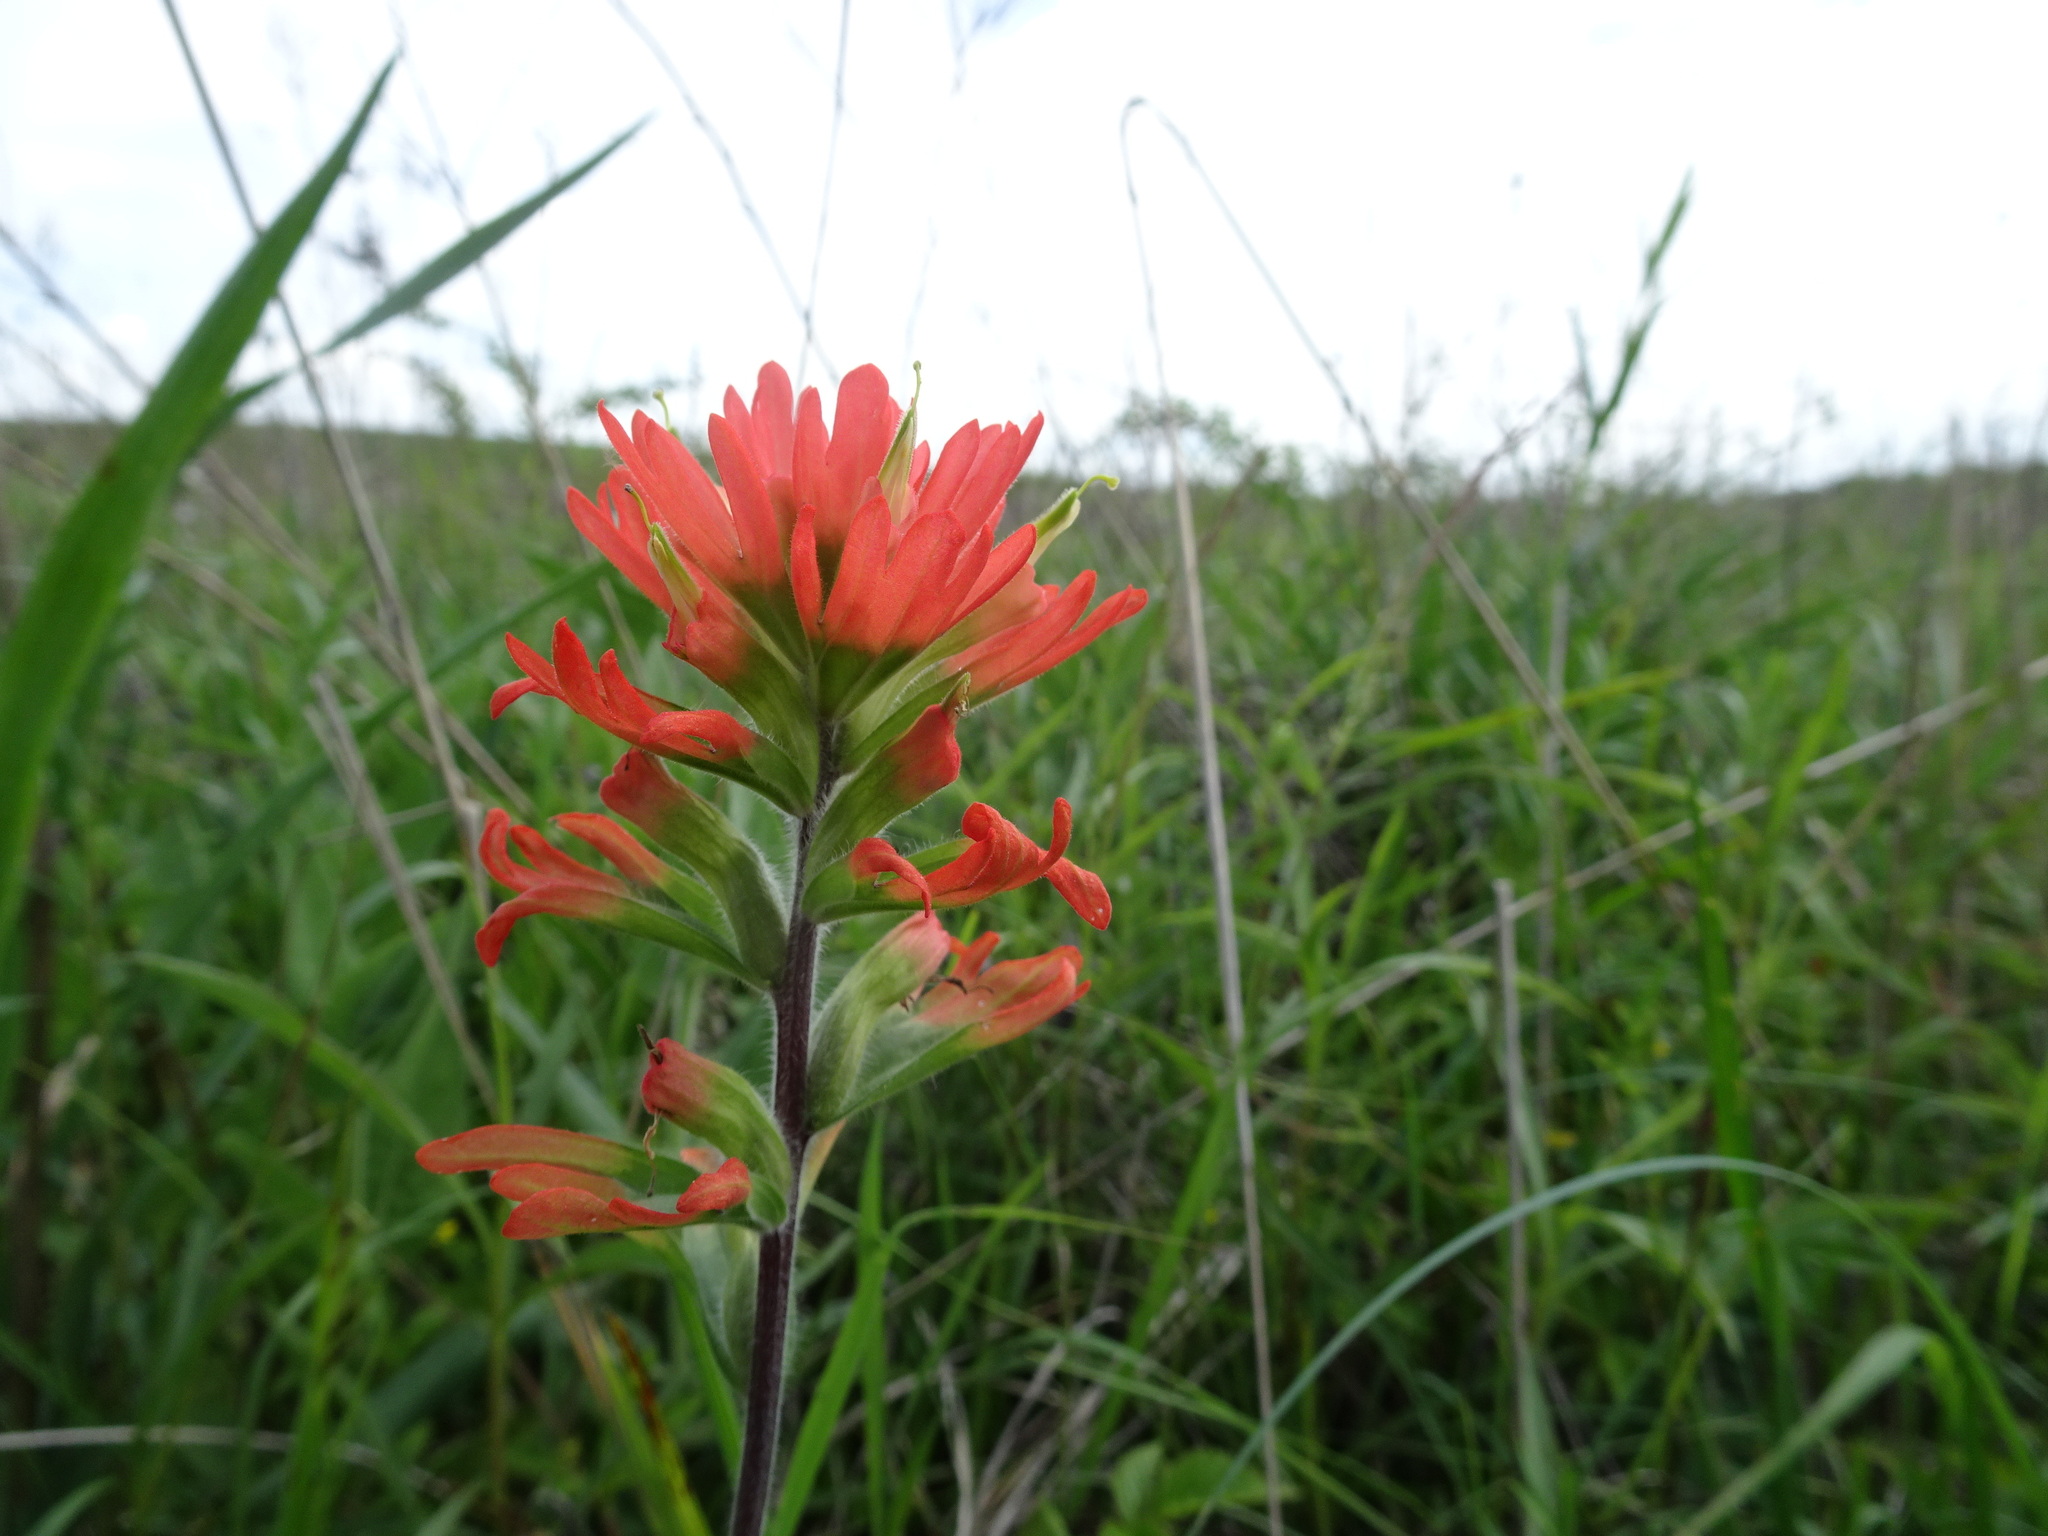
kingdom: Plantae
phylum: Tracheophyta
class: Magnoliopsida
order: Lamiales
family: Orobanchaceae
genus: Castilleja
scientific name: Castilleja coccinea
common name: Scarlet paintbrush
